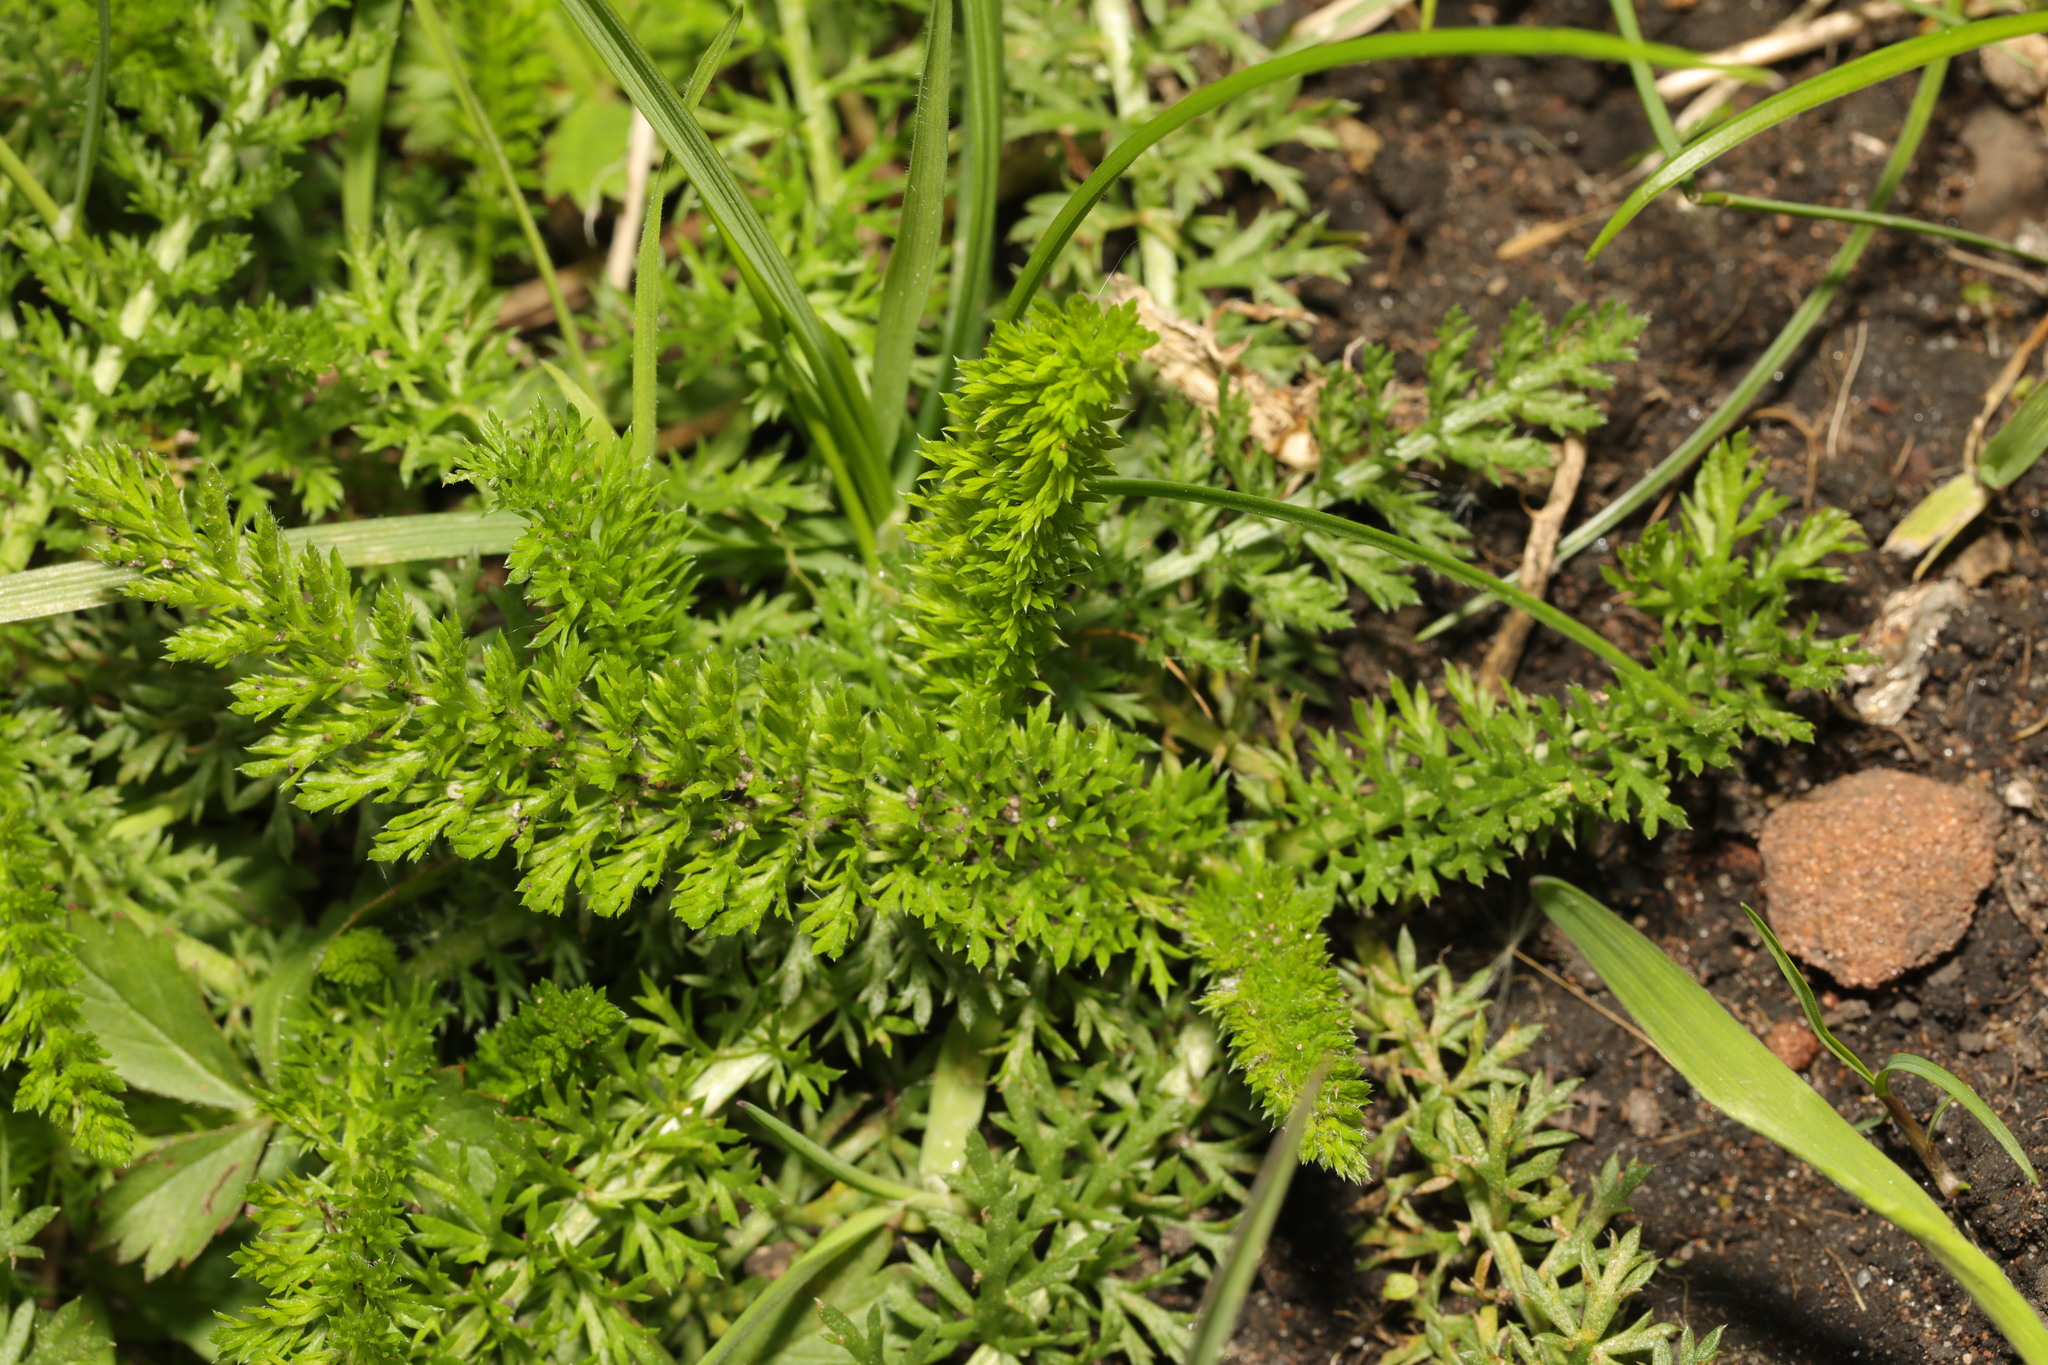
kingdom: Plantae
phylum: Tracheophyta
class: Magnoliopsida
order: Asterales
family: Asteraceae
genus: Achillea
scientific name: Achillea millefolium
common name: Yarrow
